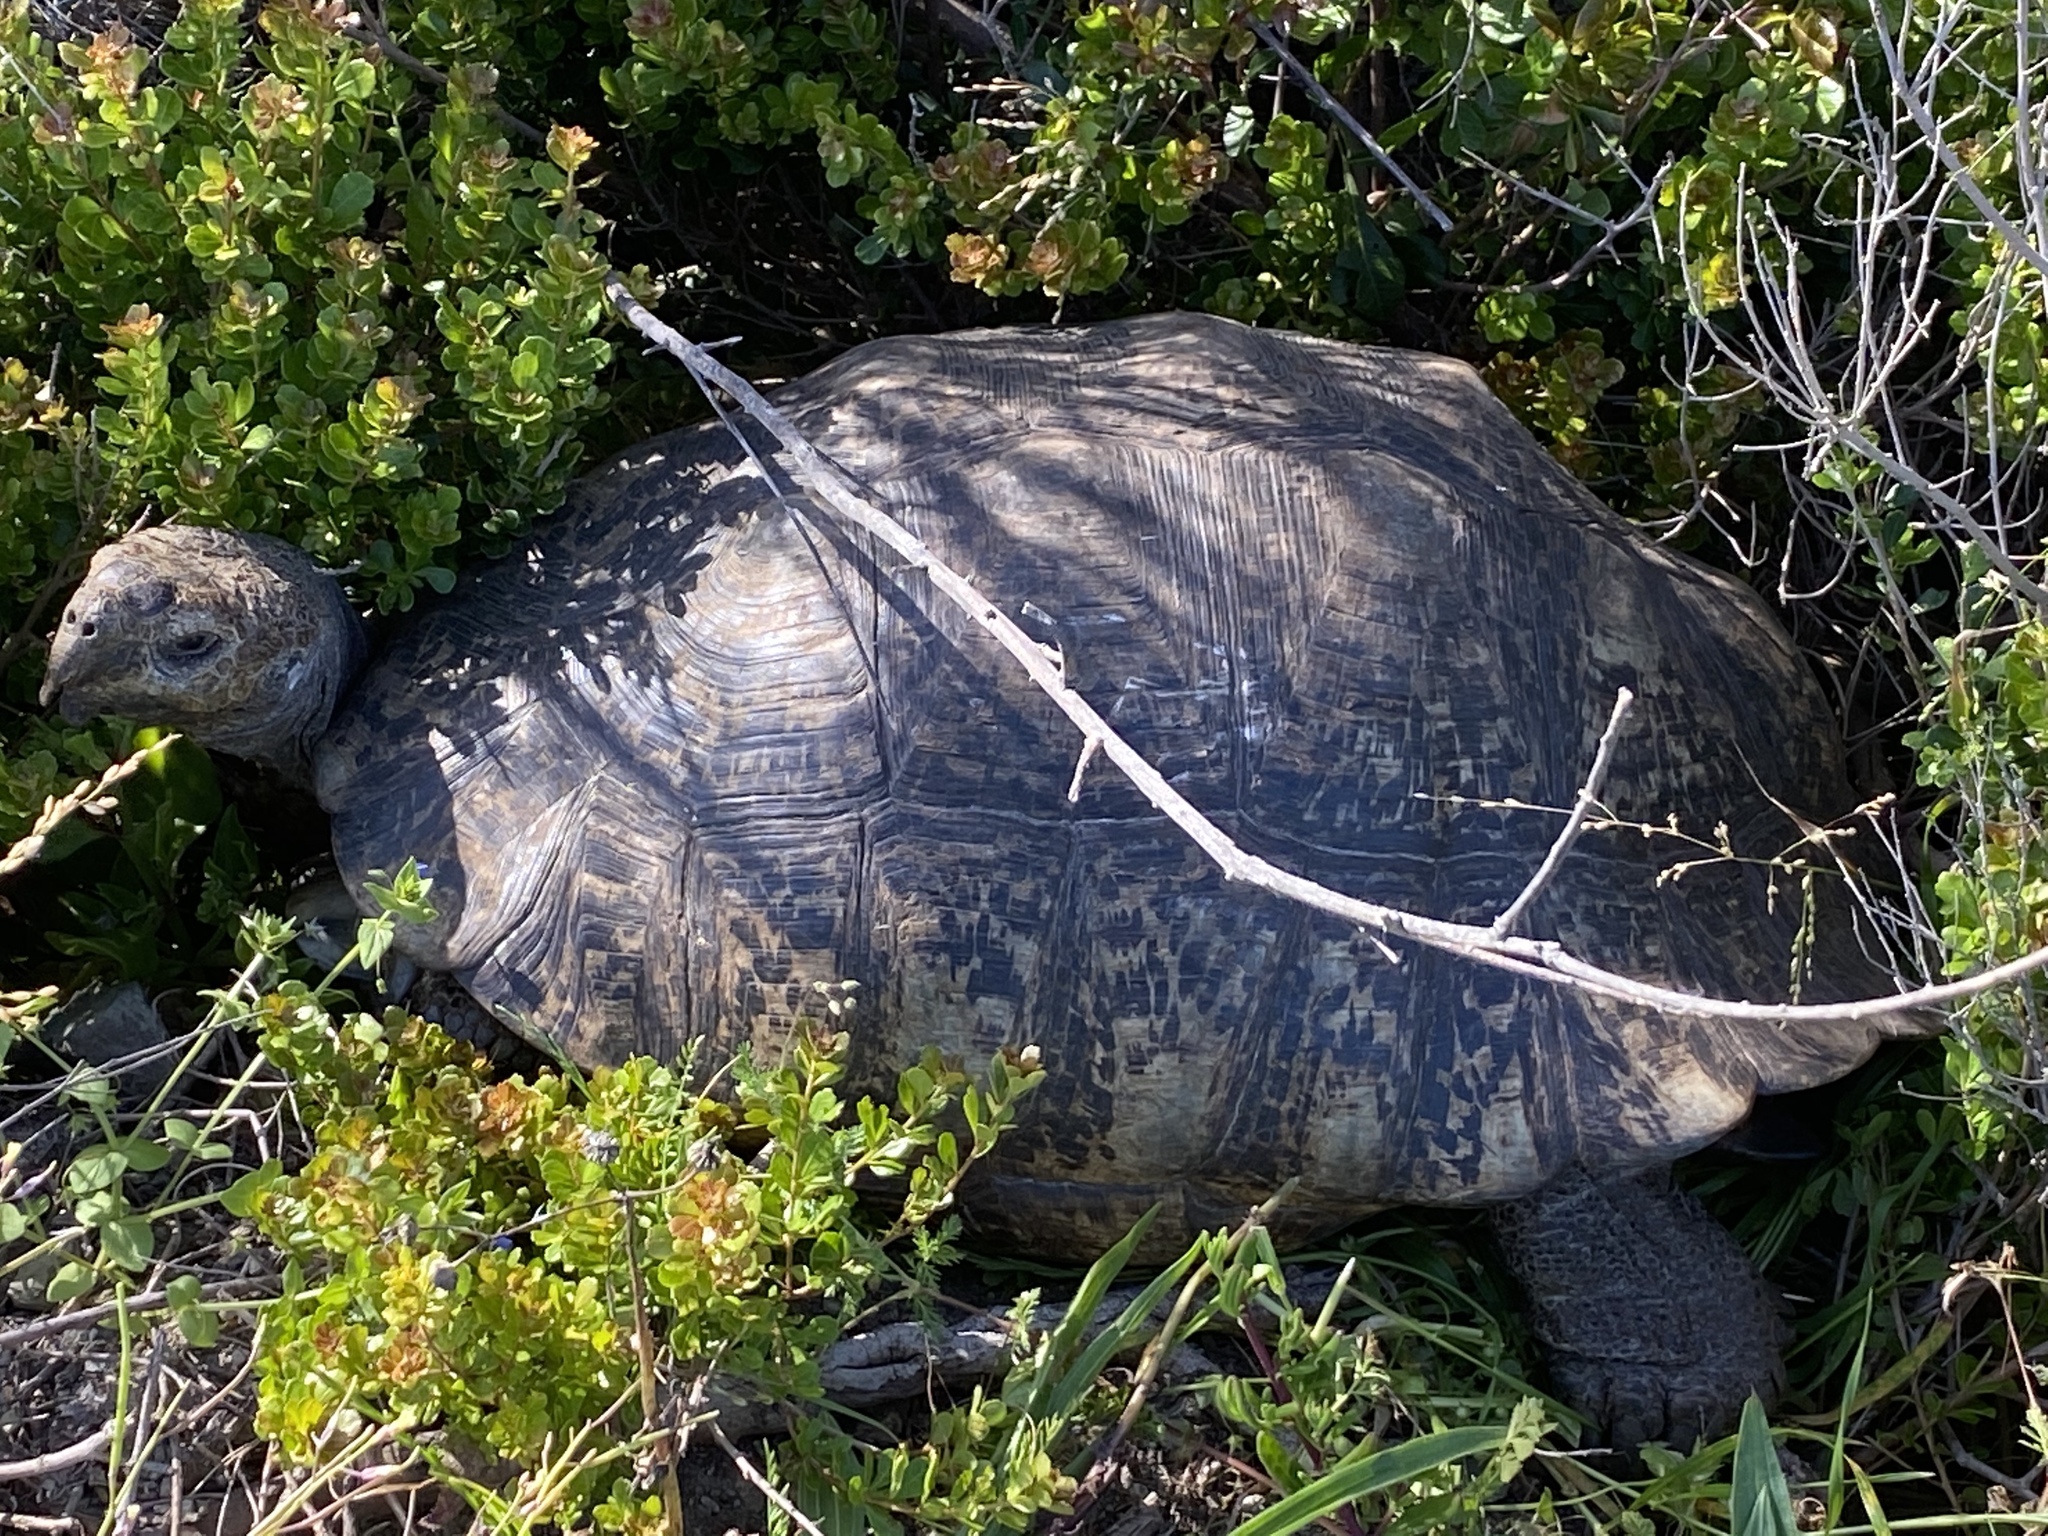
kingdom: Animalia
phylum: Chordata
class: Testudines
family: Testudinidae
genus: Stigmochelys
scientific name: Stigmochelys pardalis
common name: Leopard tortoise
